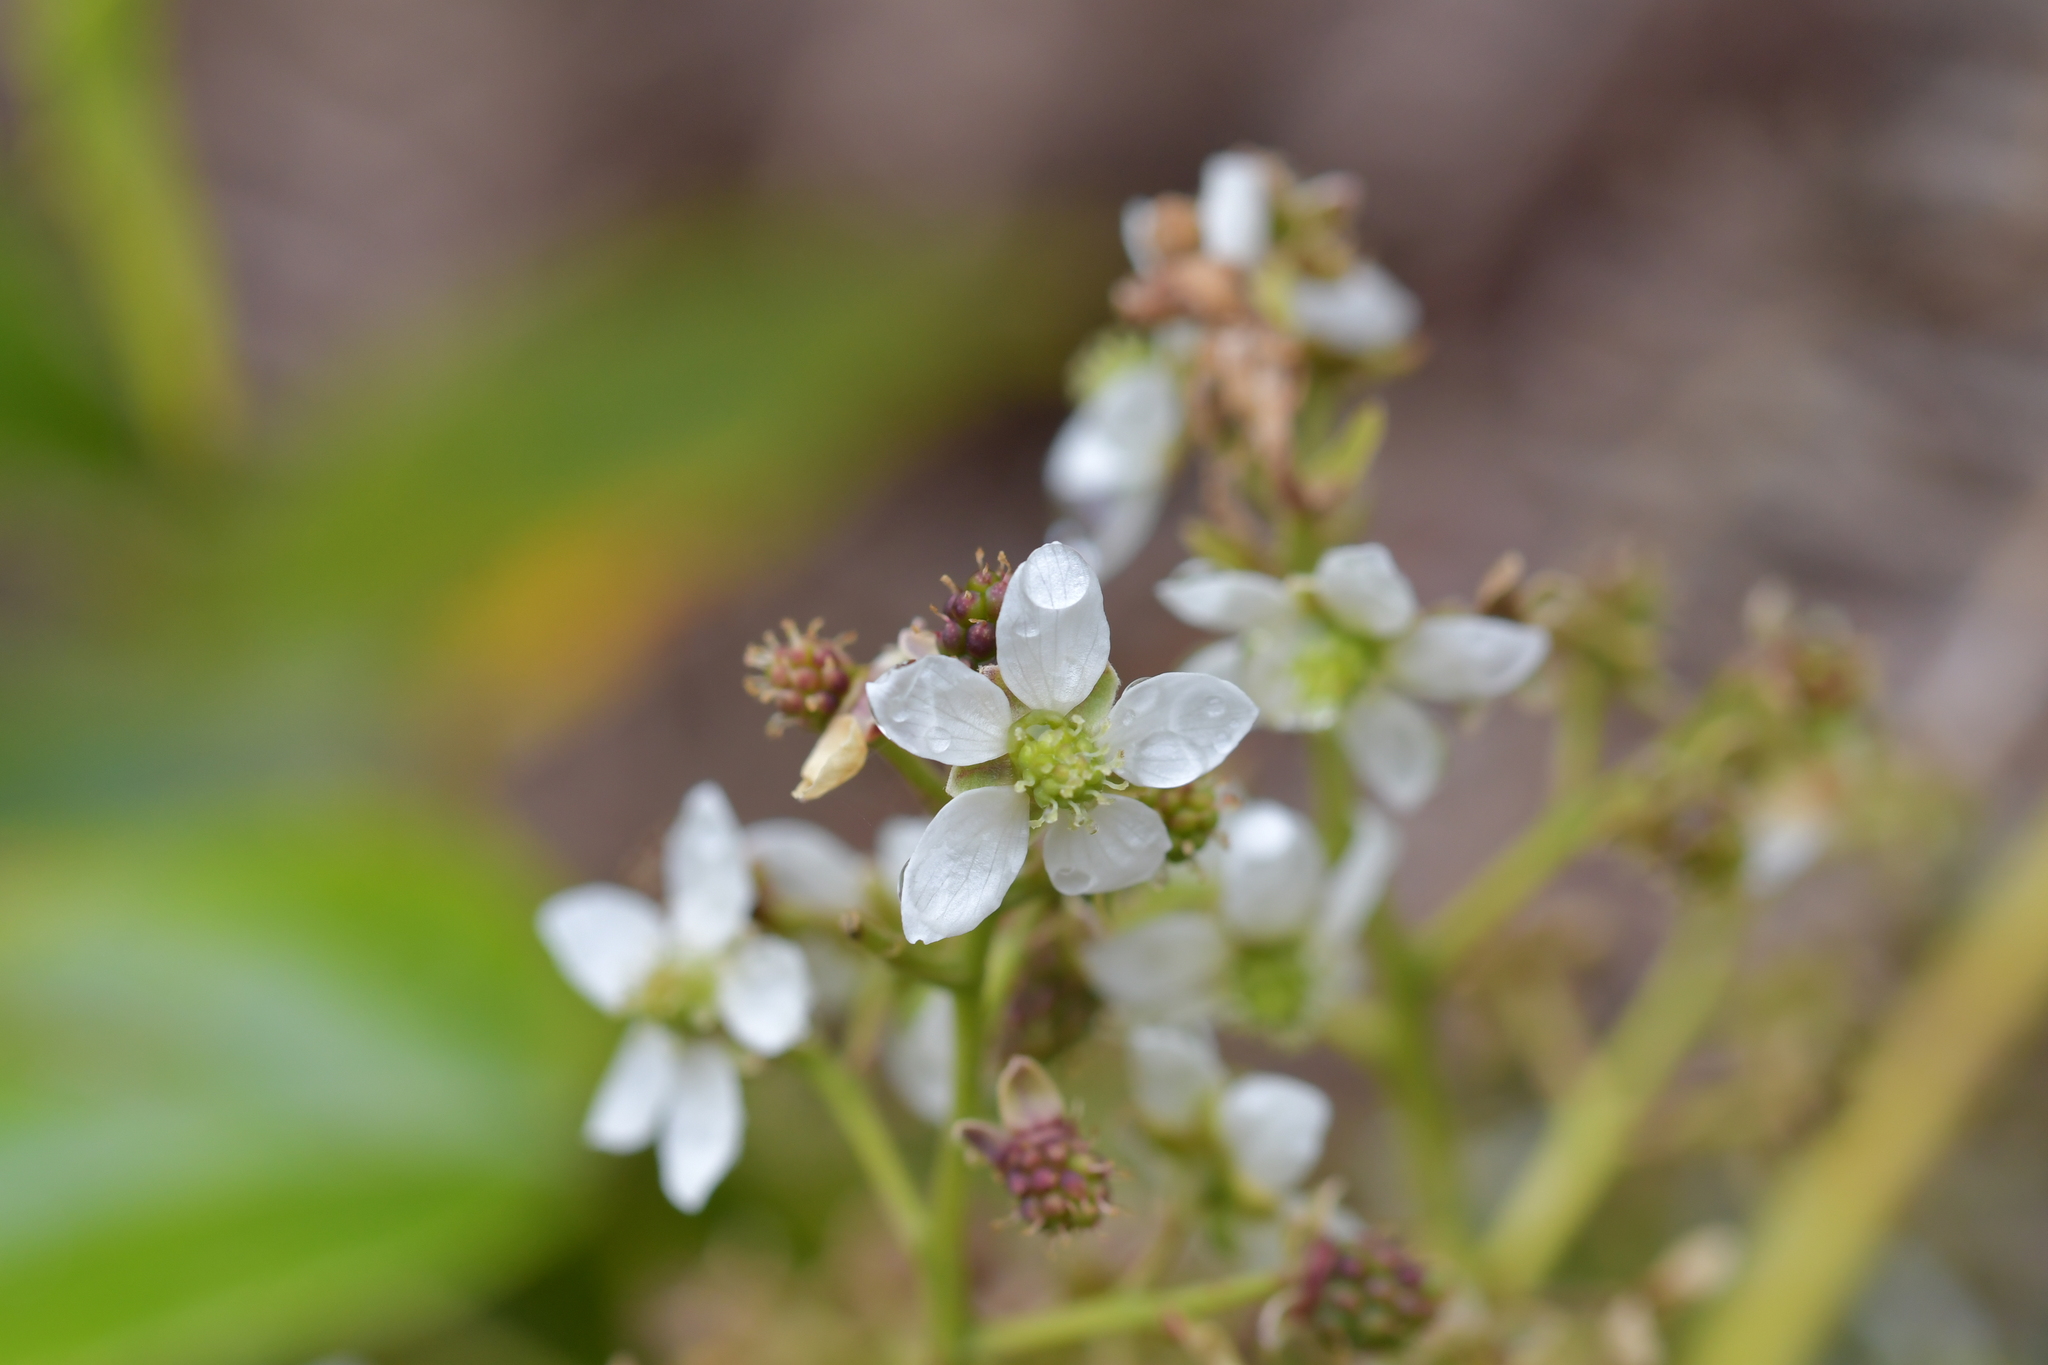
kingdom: Plantae
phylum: Tracheophyta
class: Magnoliopsida
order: Rosales
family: Rosaceae
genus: Rubus
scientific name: Rubus cissoides
